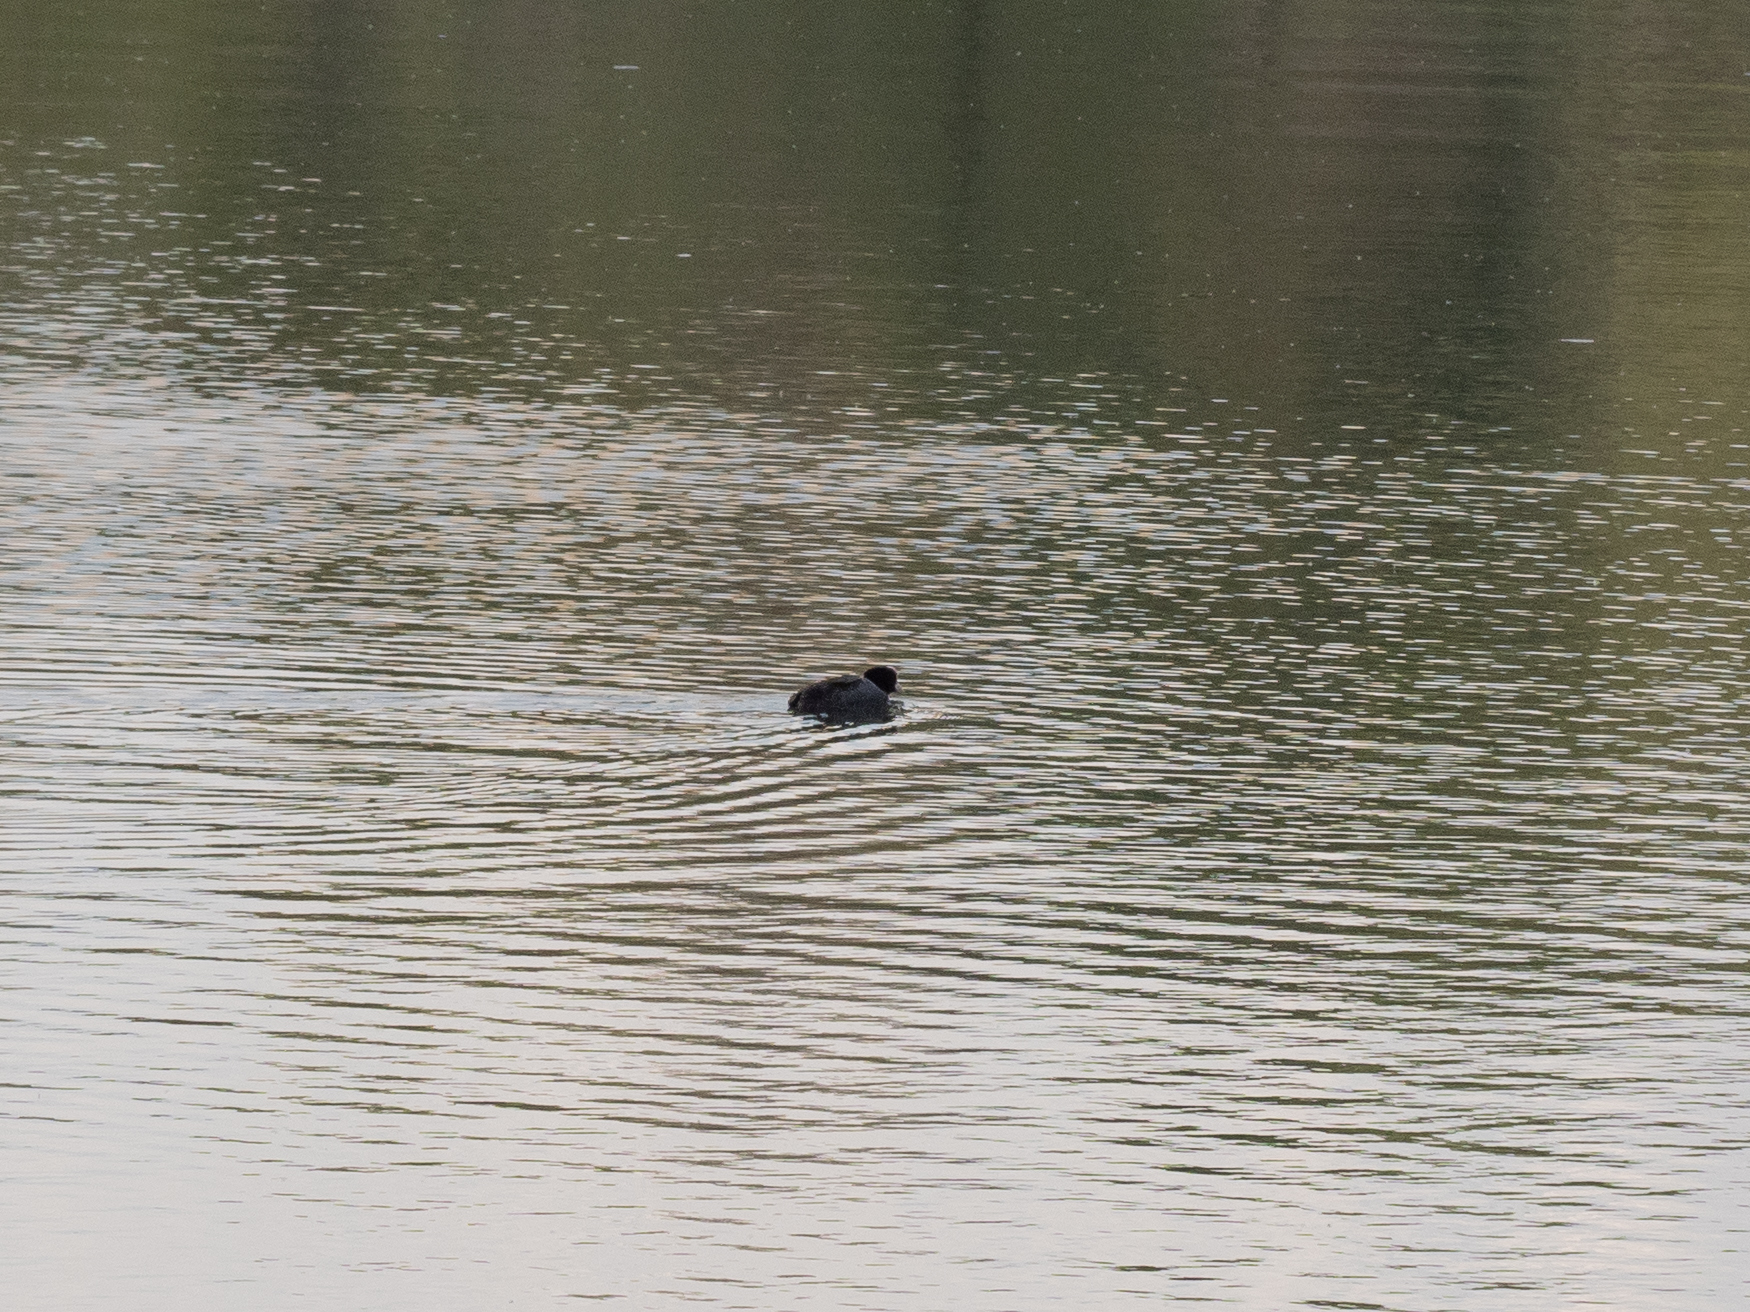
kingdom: Animalia
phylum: Chordata
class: Aves
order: Gruiformes
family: Rallidae
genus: Fulica
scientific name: Fulica atra
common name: Eurasian coot
